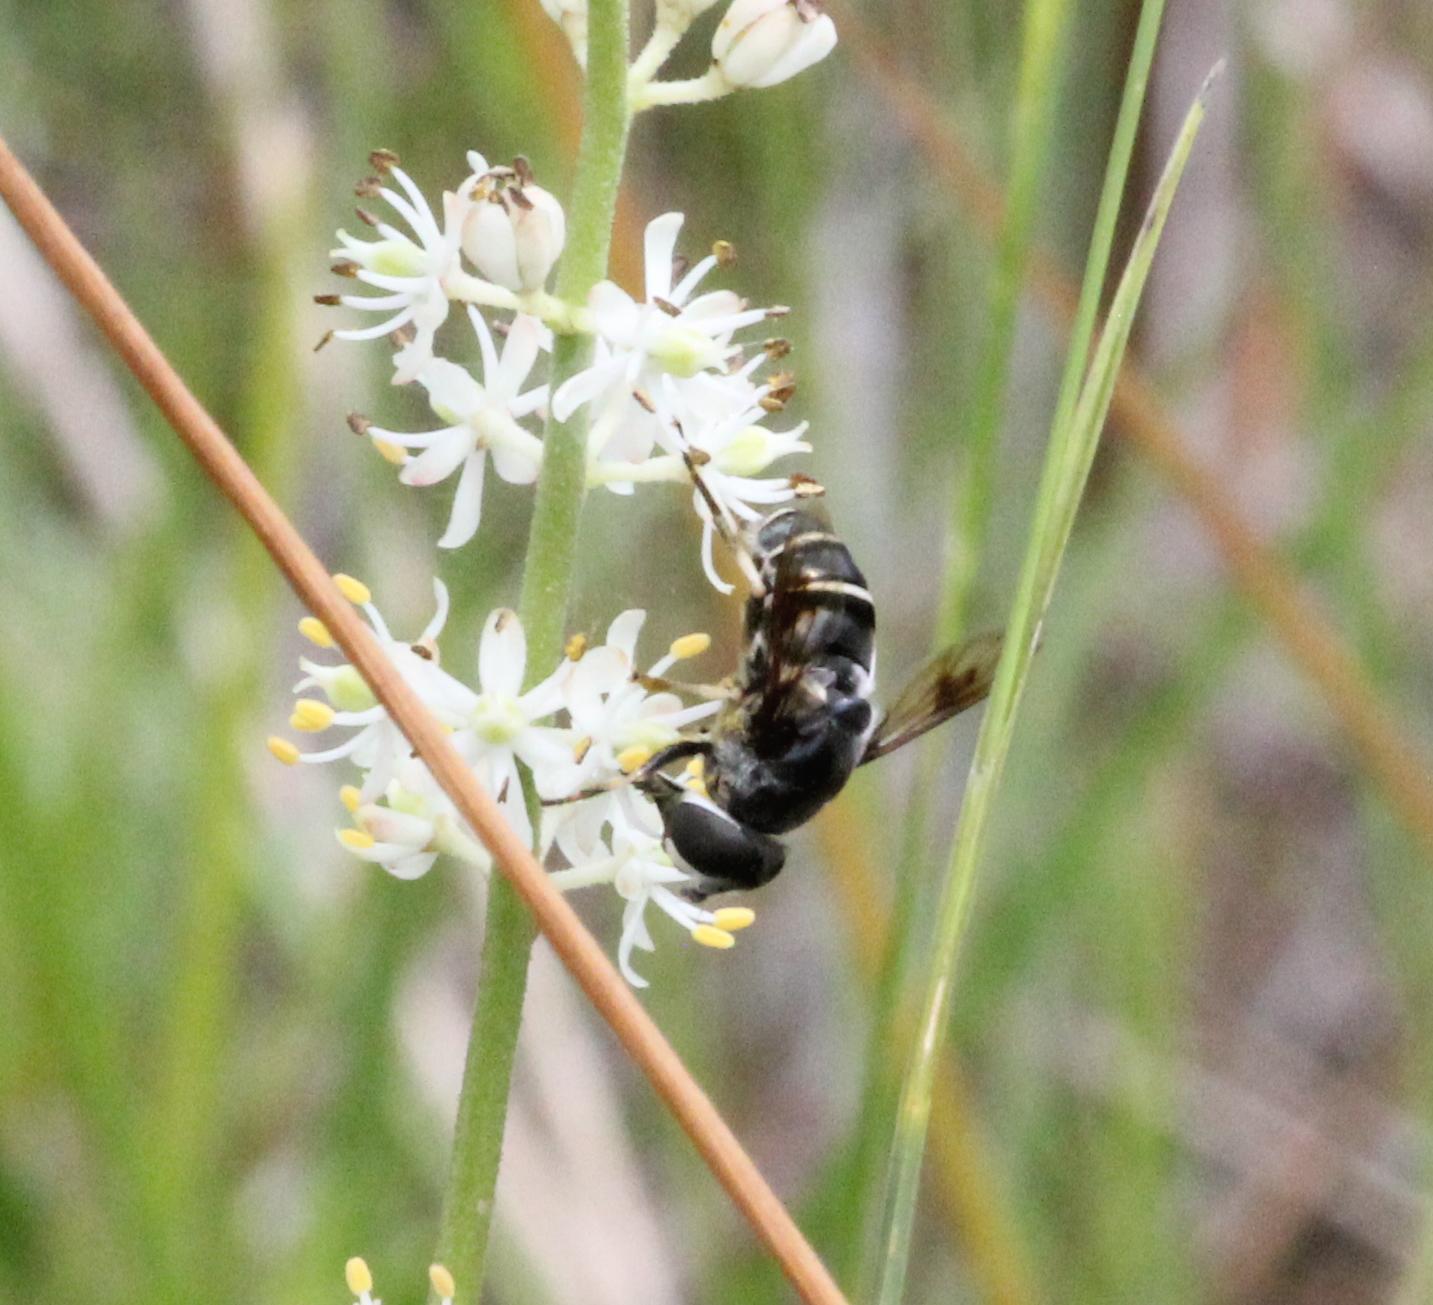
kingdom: Animalia
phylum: Arthropoda
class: Insecta
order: Diptera
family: Syrphidae
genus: Eristalis
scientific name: Eristalis saxorum
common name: Blue-polished drone fly
